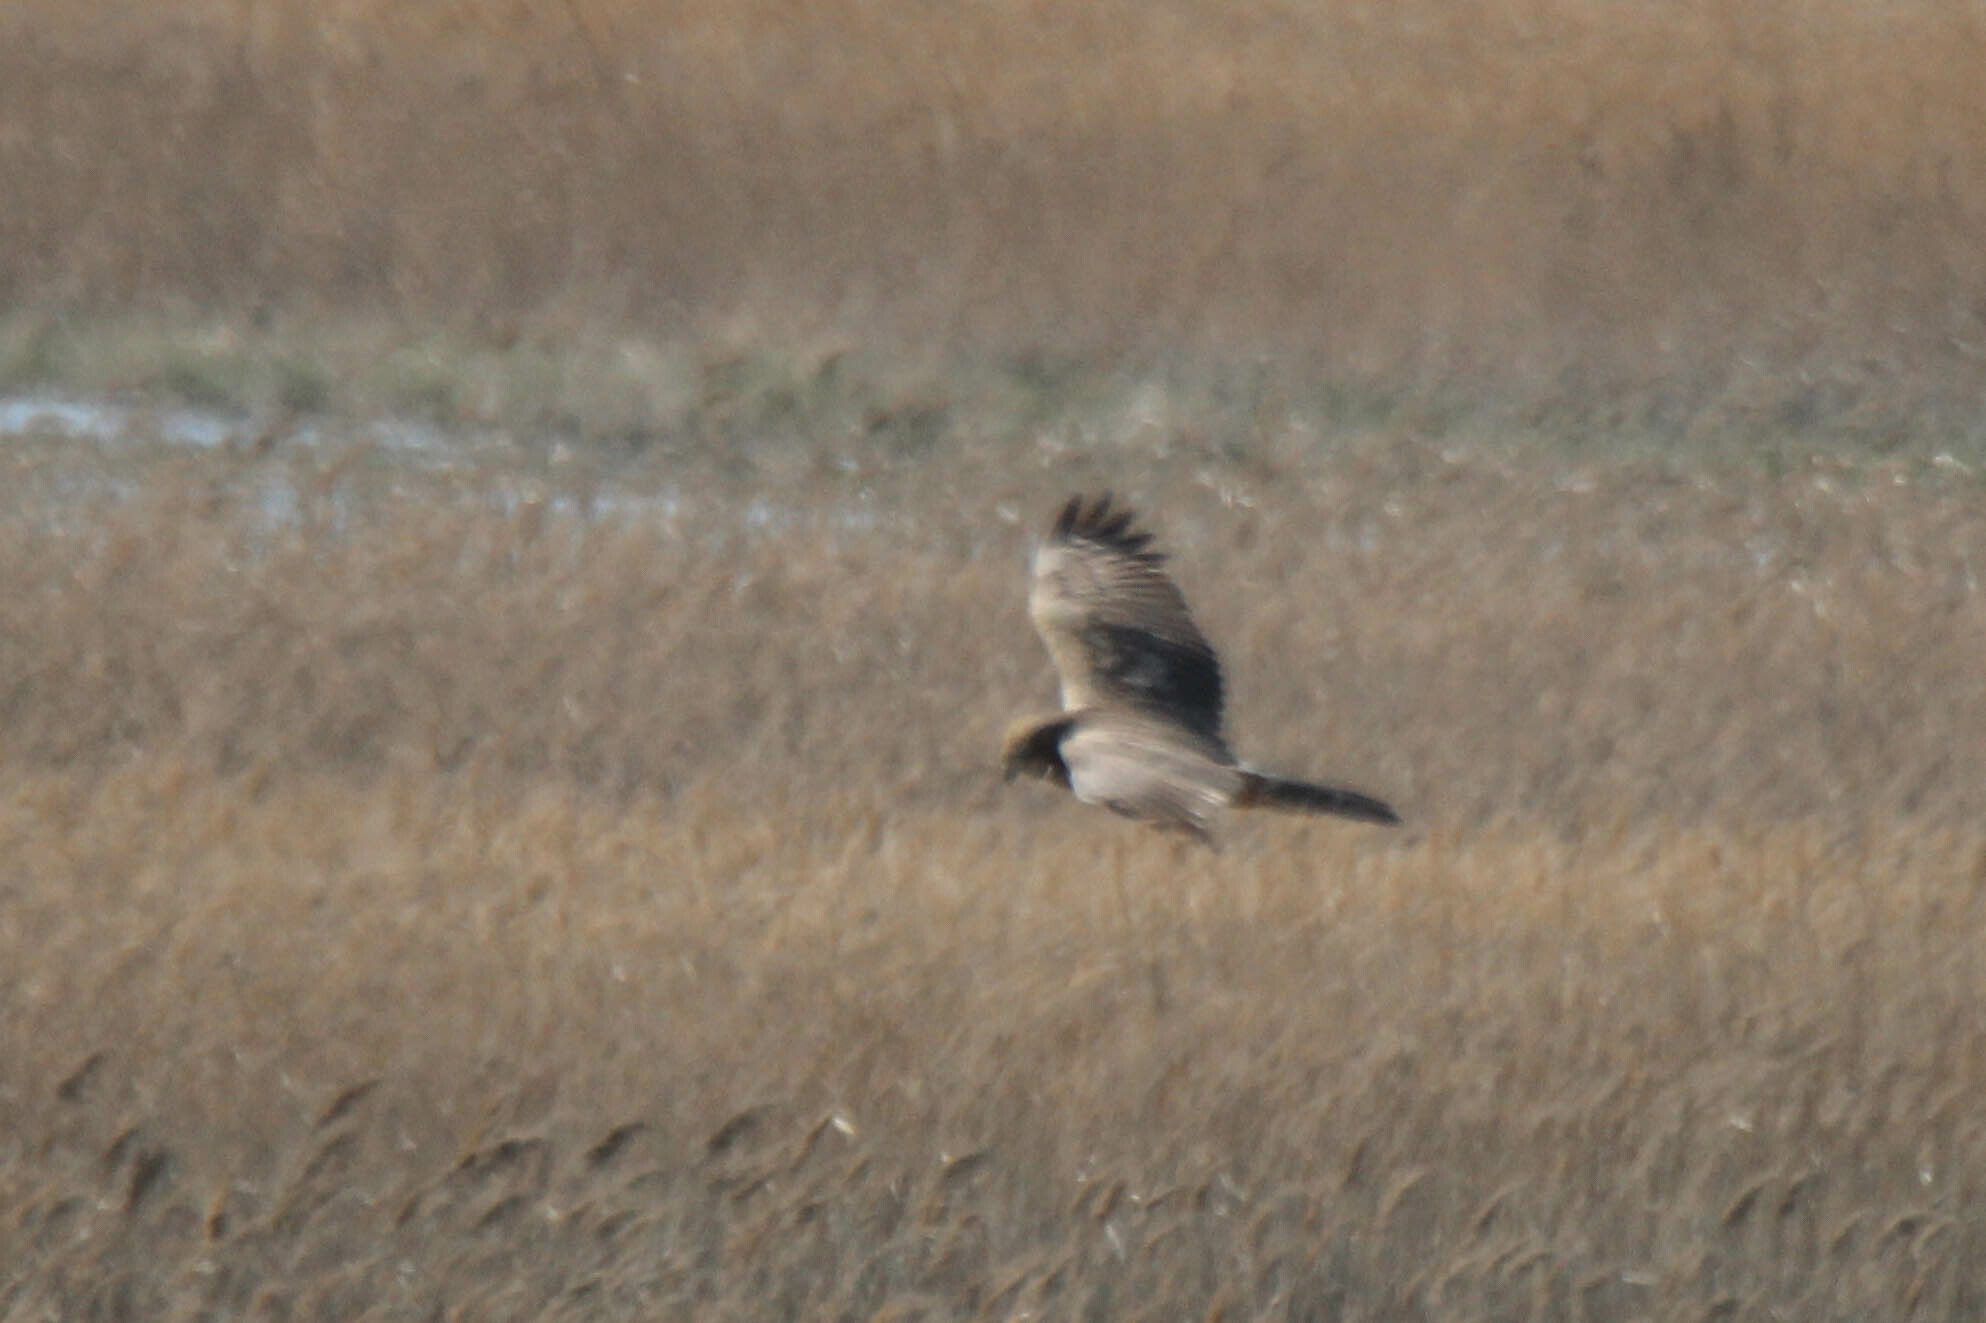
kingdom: Animalia
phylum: Chordata
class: Aves
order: Accipitriformes
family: Accipitridae
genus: Circus
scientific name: Circus spilonotus
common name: Eastern marsh-harrier
